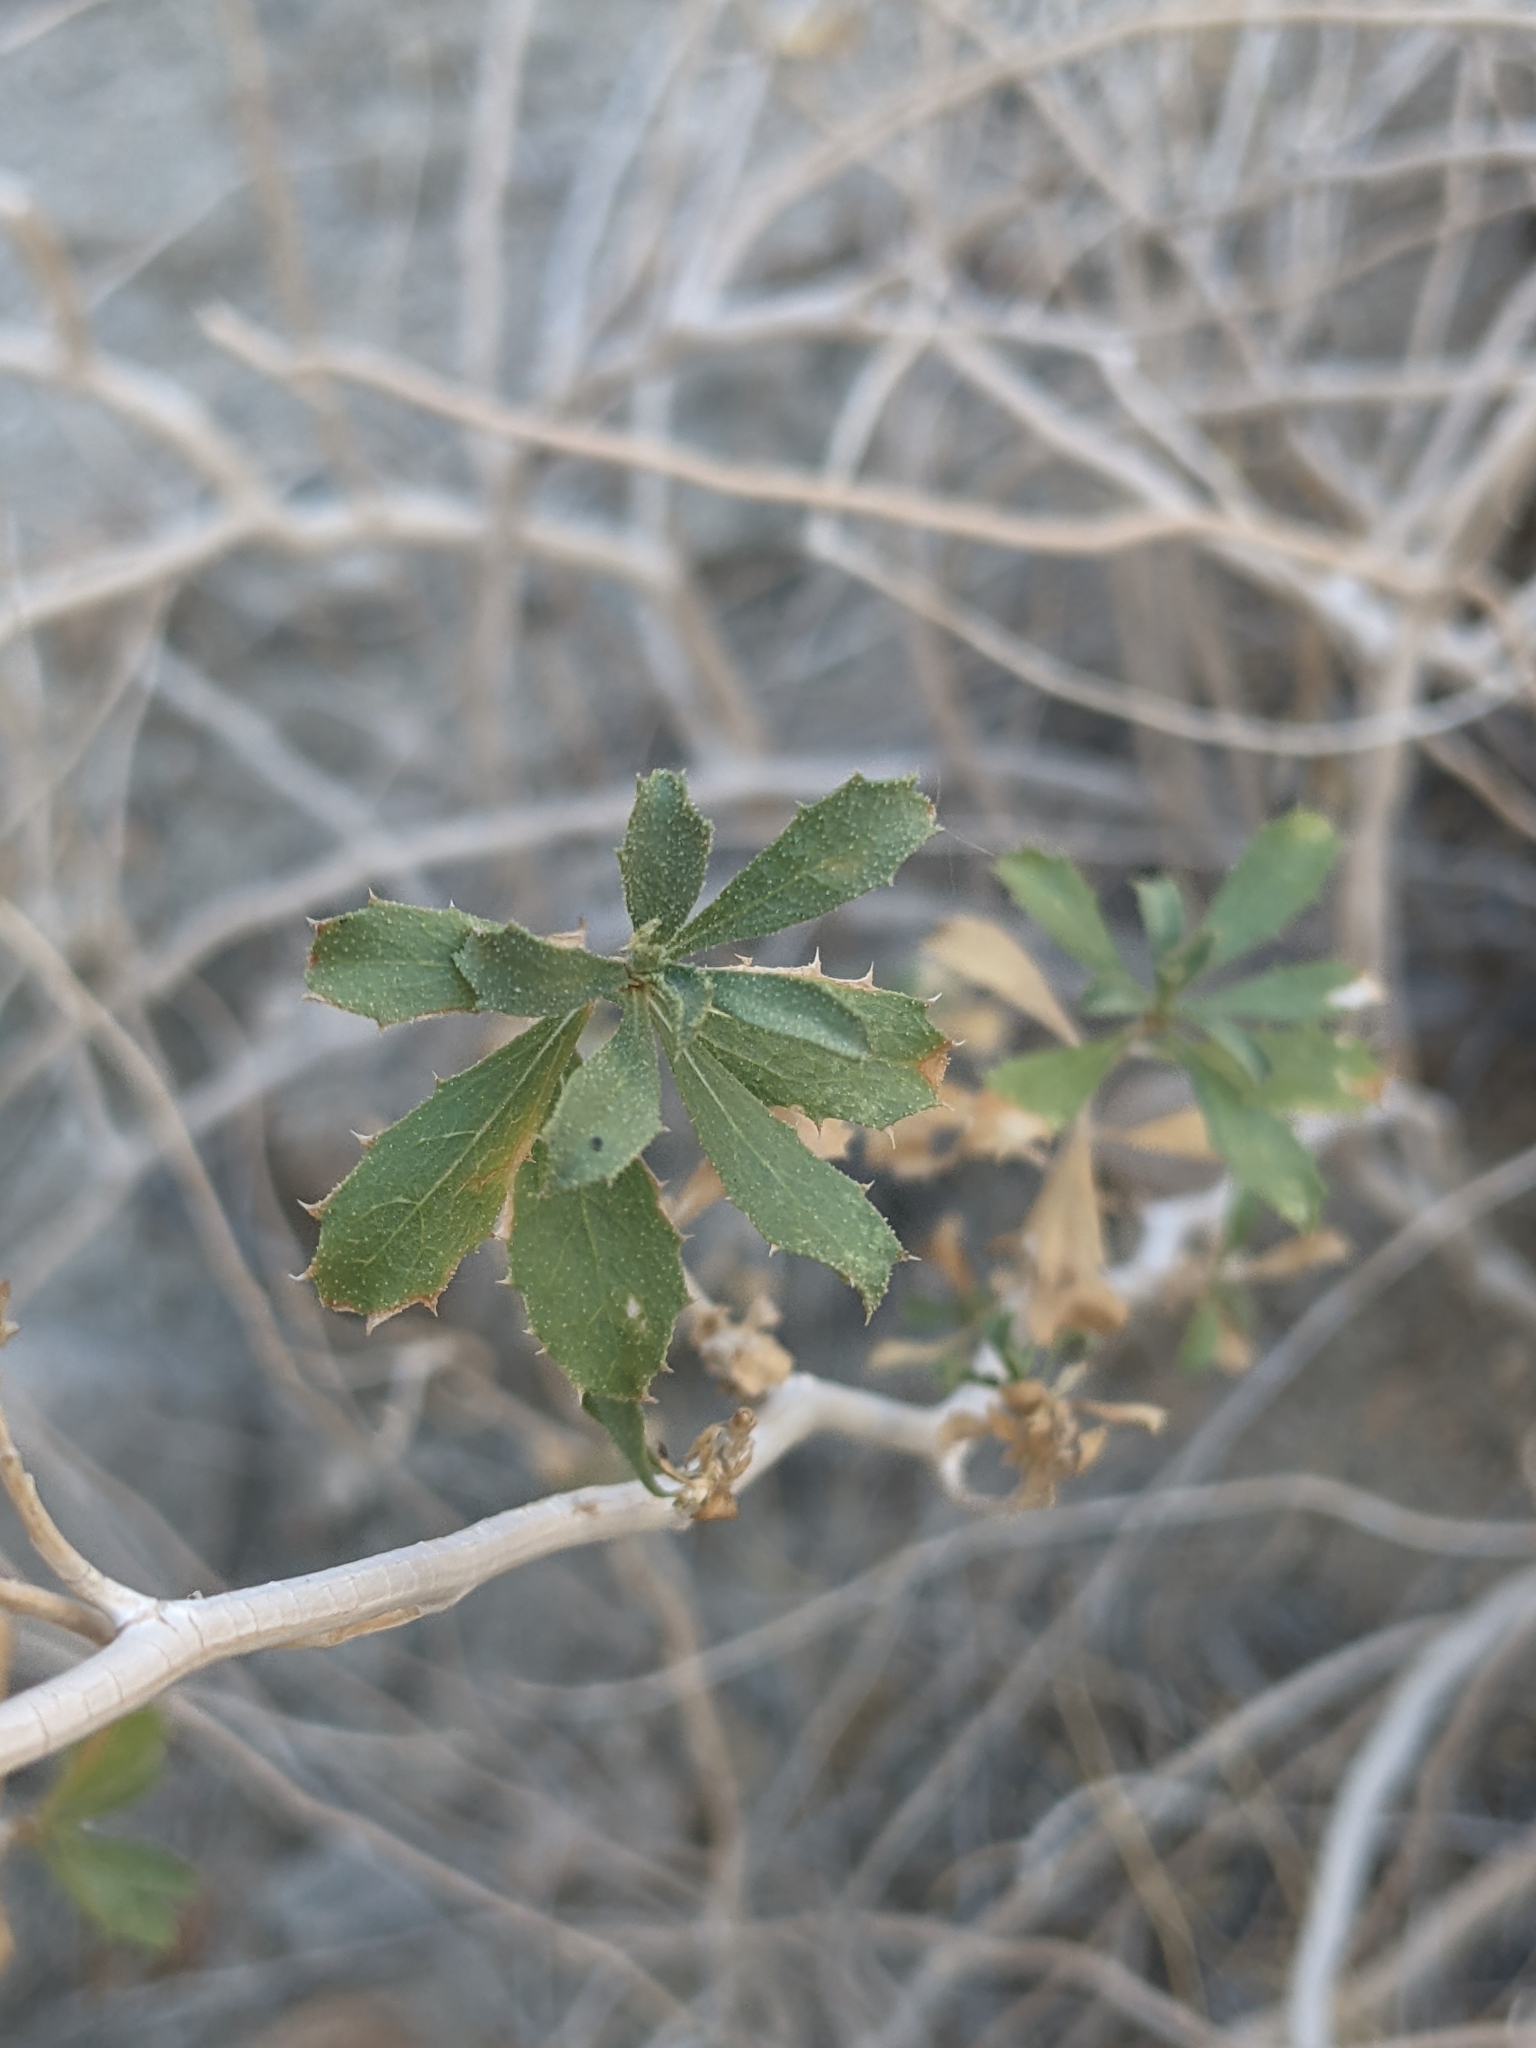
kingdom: Plantae
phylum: Tracheophyta
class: Magnoliopsida
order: Asterales
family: Asteraceae
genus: Xylorhiza
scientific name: Xylorhiza cognata
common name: Mecca woody-aster
